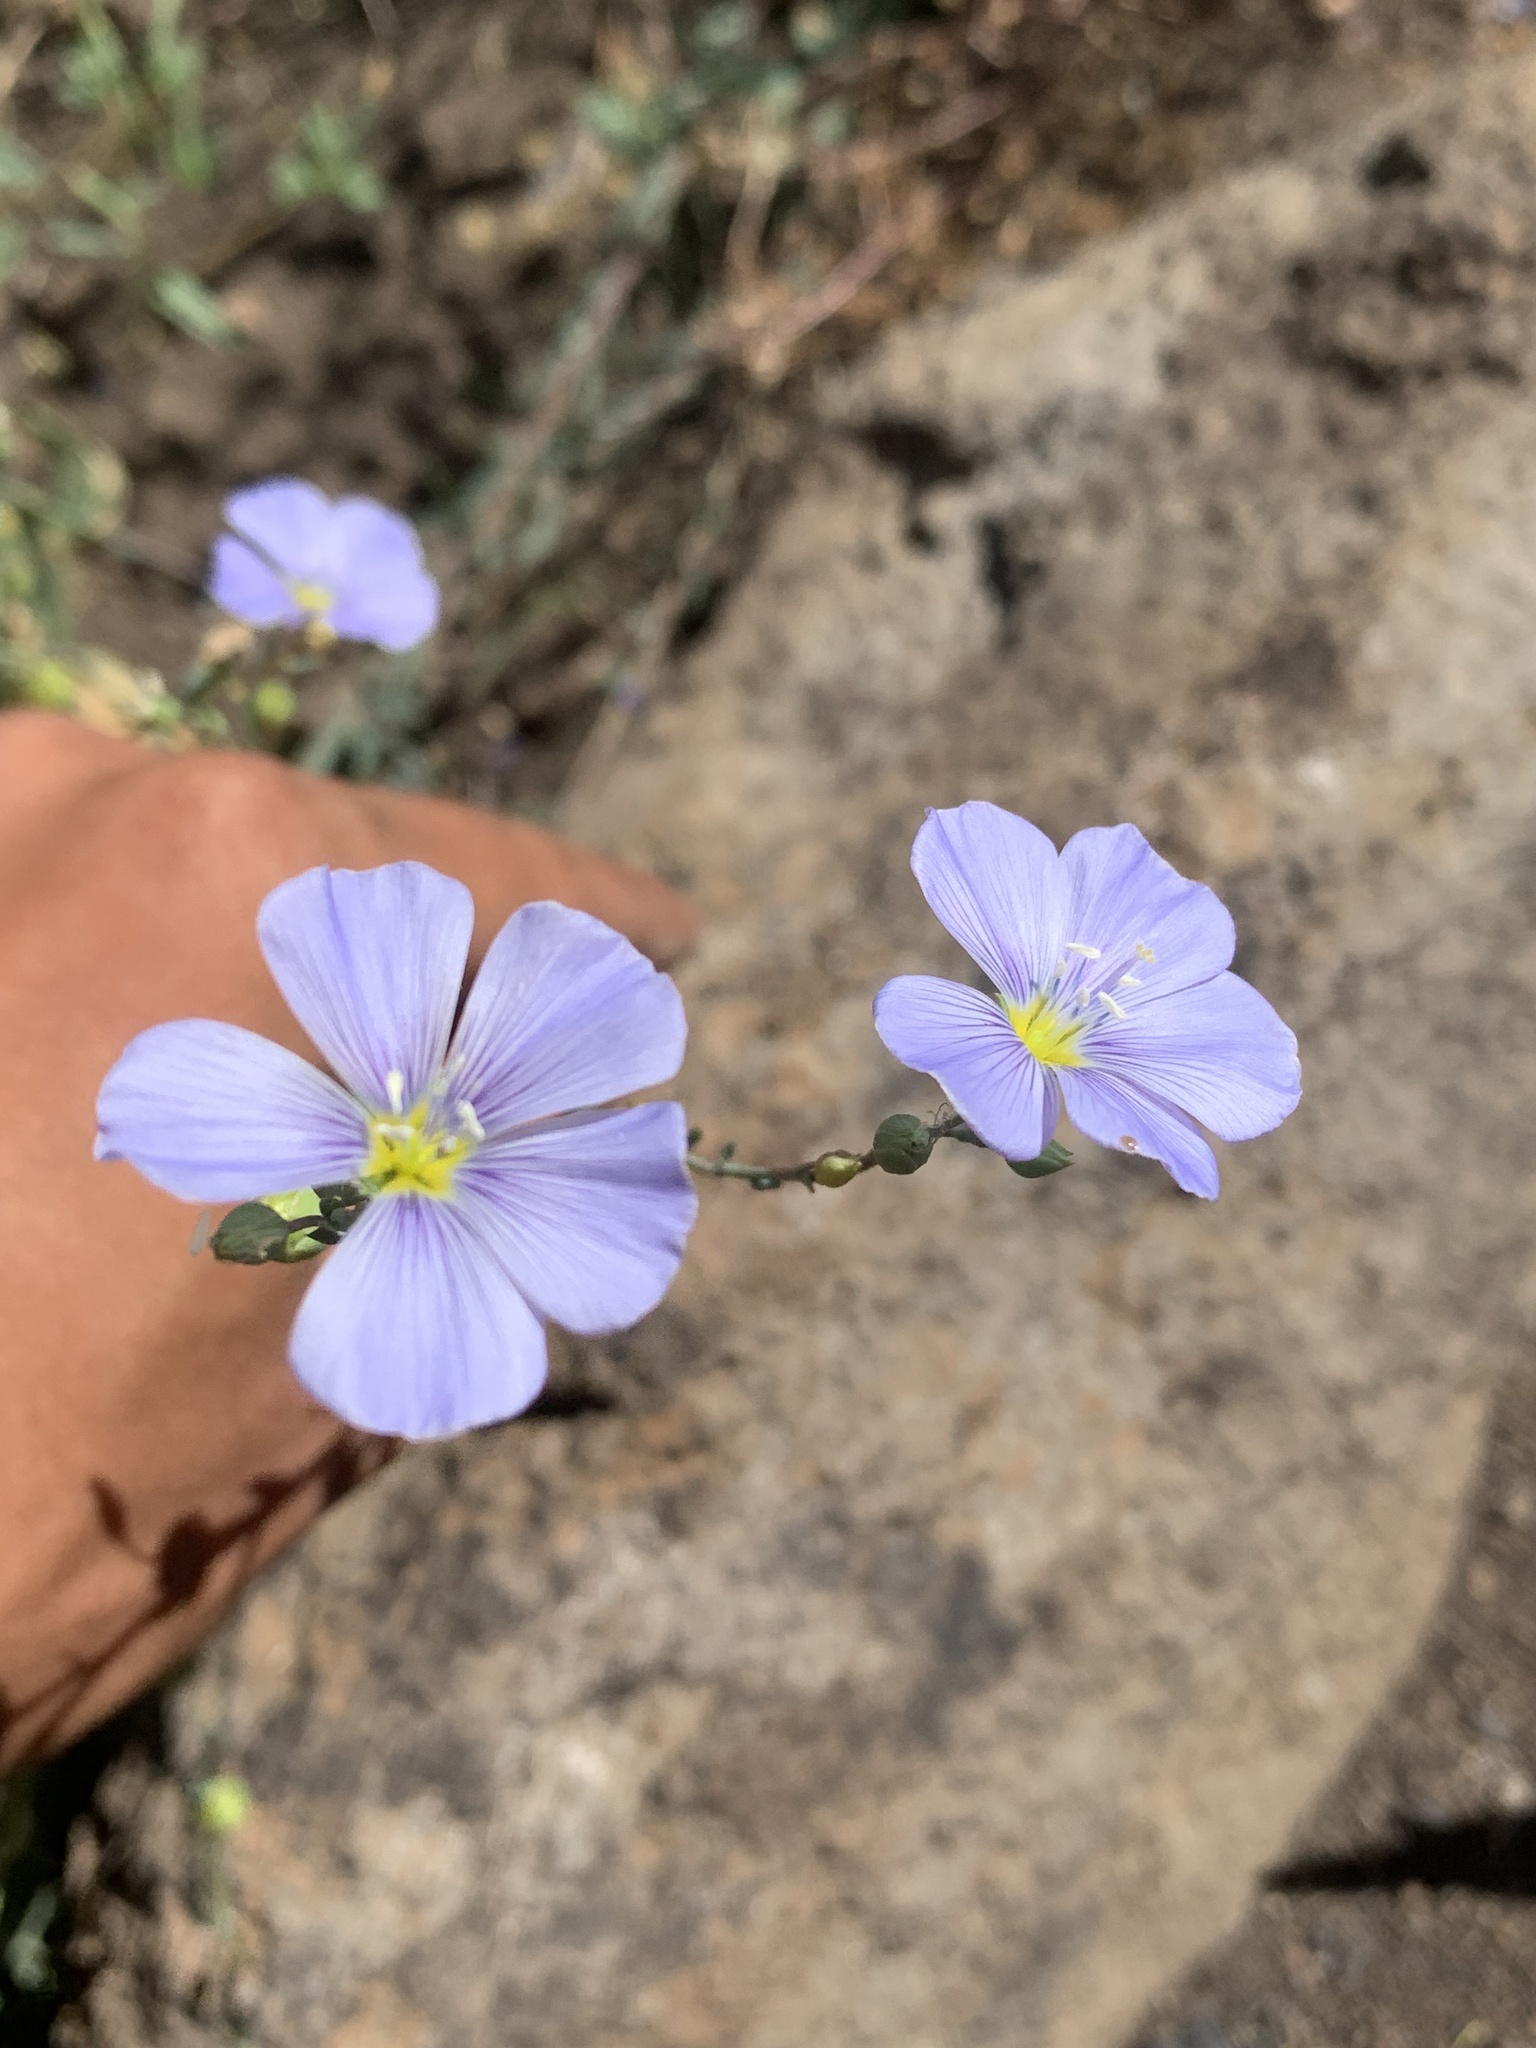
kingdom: Plantae
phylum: Tracheophyta
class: Magnoliopsida
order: Malpighiales
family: Linaceae
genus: Linum
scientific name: Linum lewisii
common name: Prairie flax
